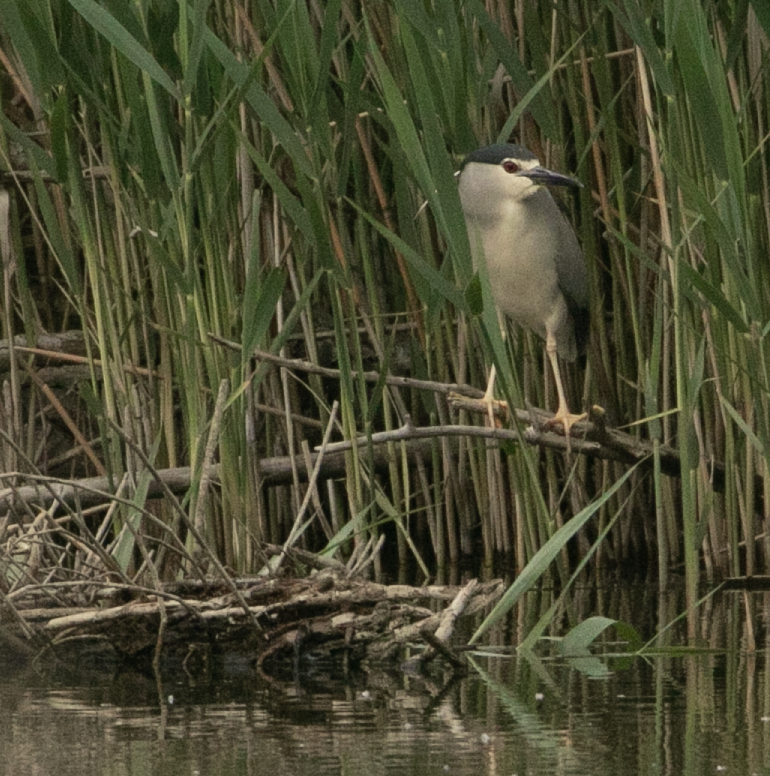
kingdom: Animalia
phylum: Chordata
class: Aves
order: Pelecaniformes
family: Ardeidae
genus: Nycticorax
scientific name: Nycticorax nycticorax
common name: Black-crowned night heron
